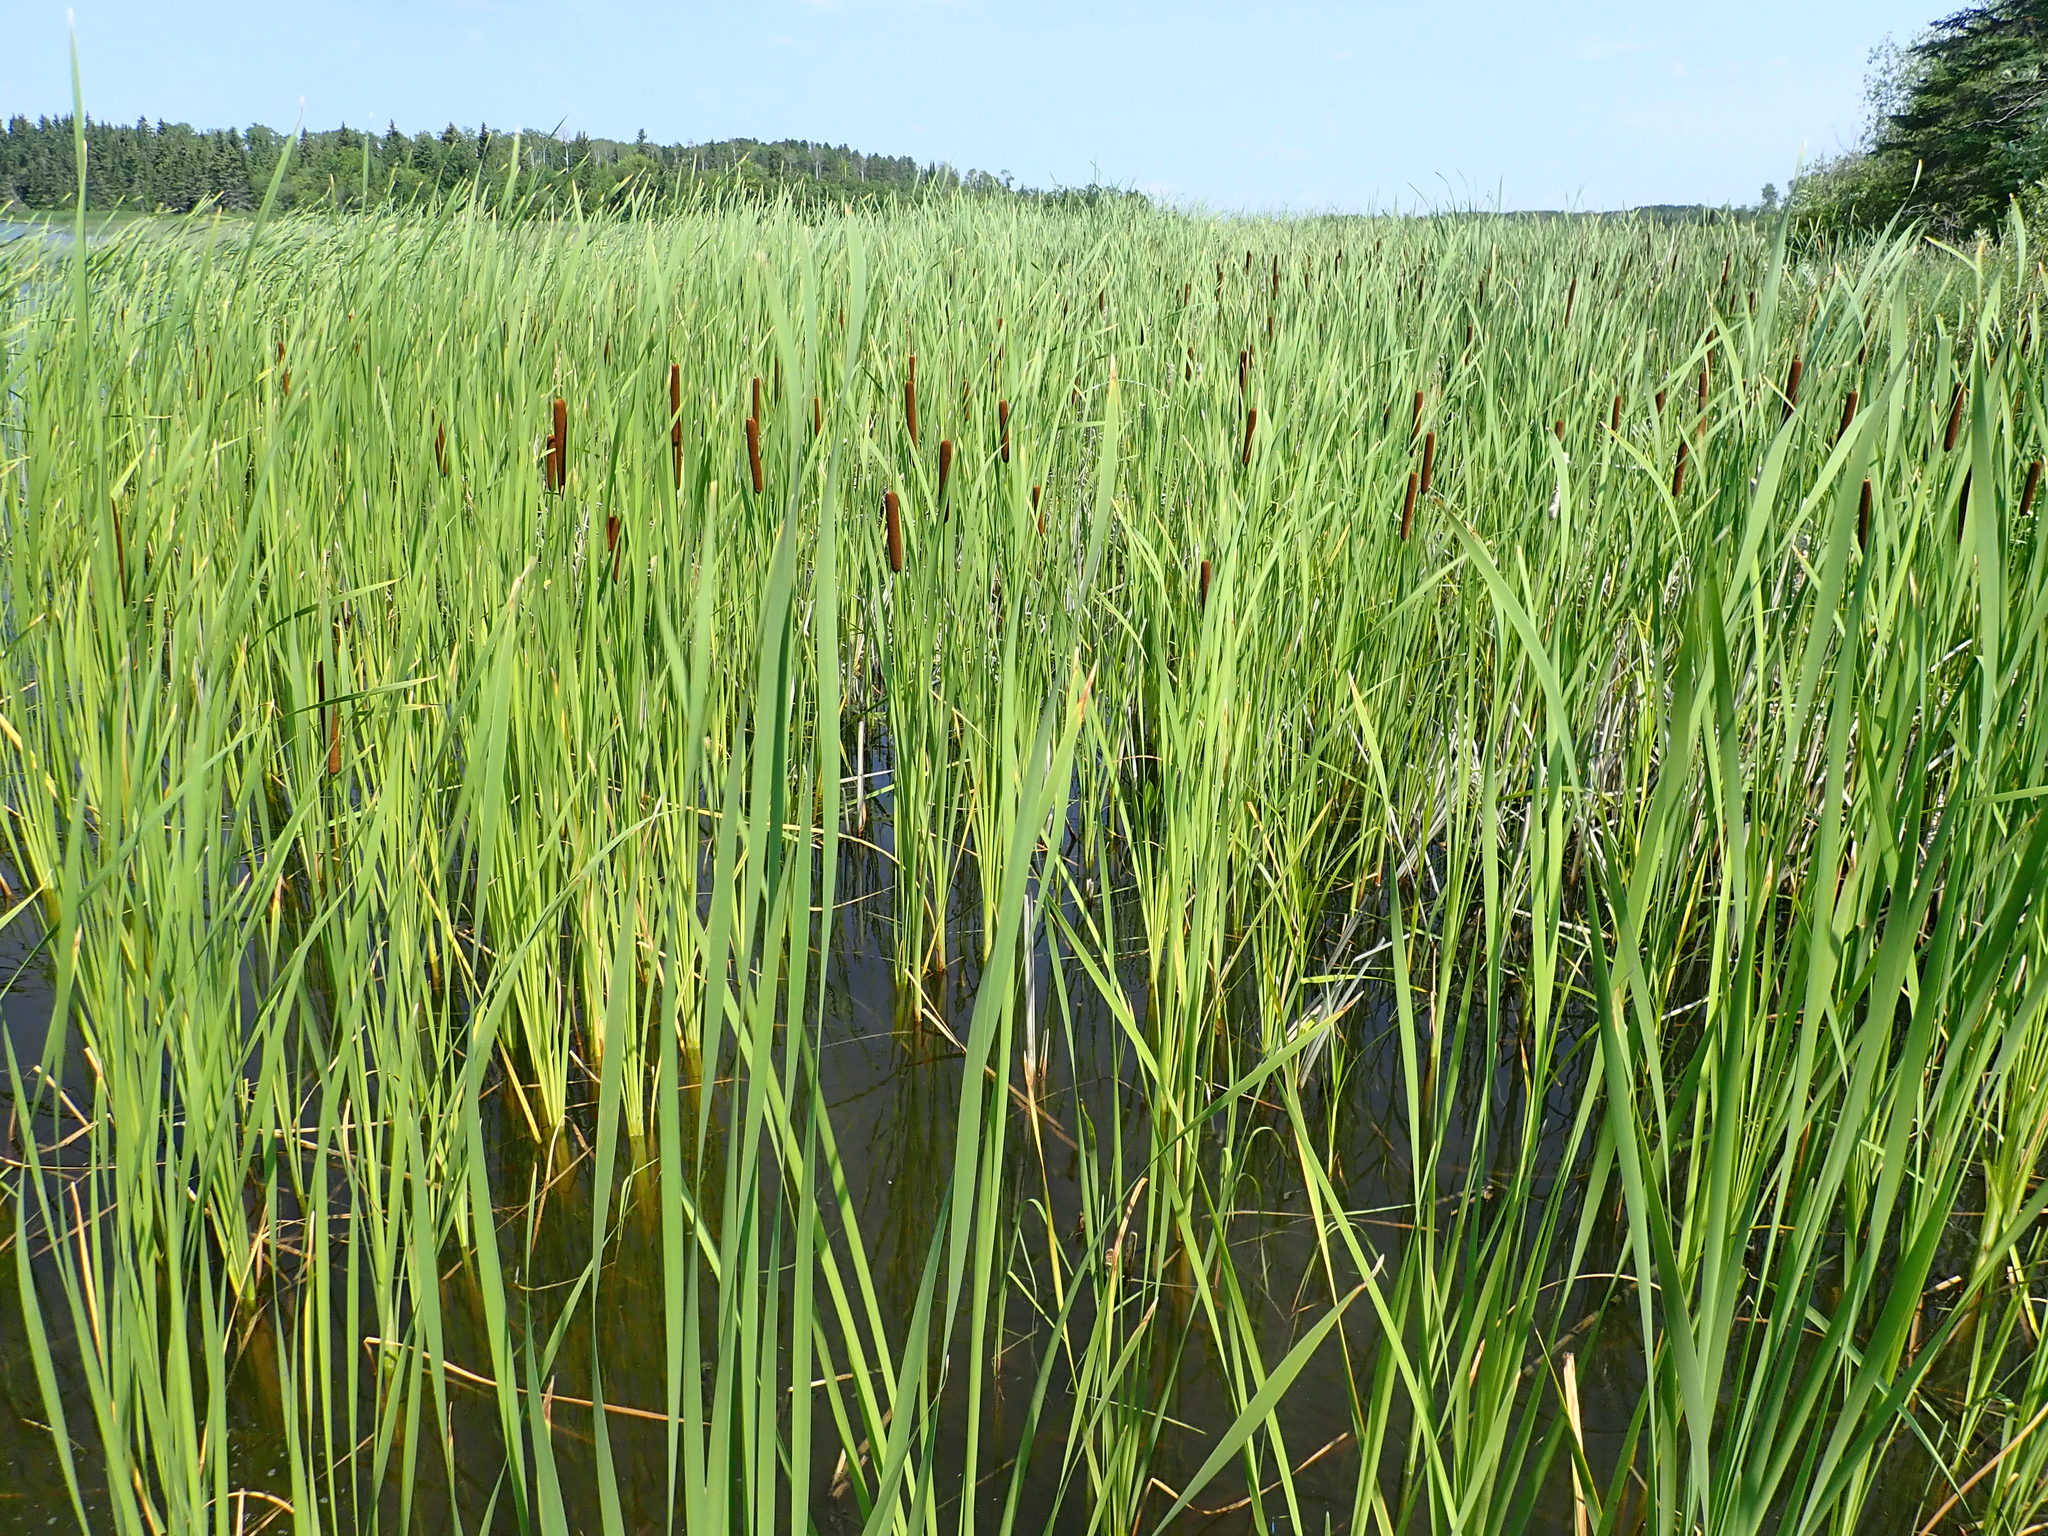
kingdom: Plantae
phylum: Tracheophyta
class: Liliopsida
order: Poales
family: Typhaceae
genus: Typha
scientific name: Typha angustifolia
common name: Lesser bulrush
